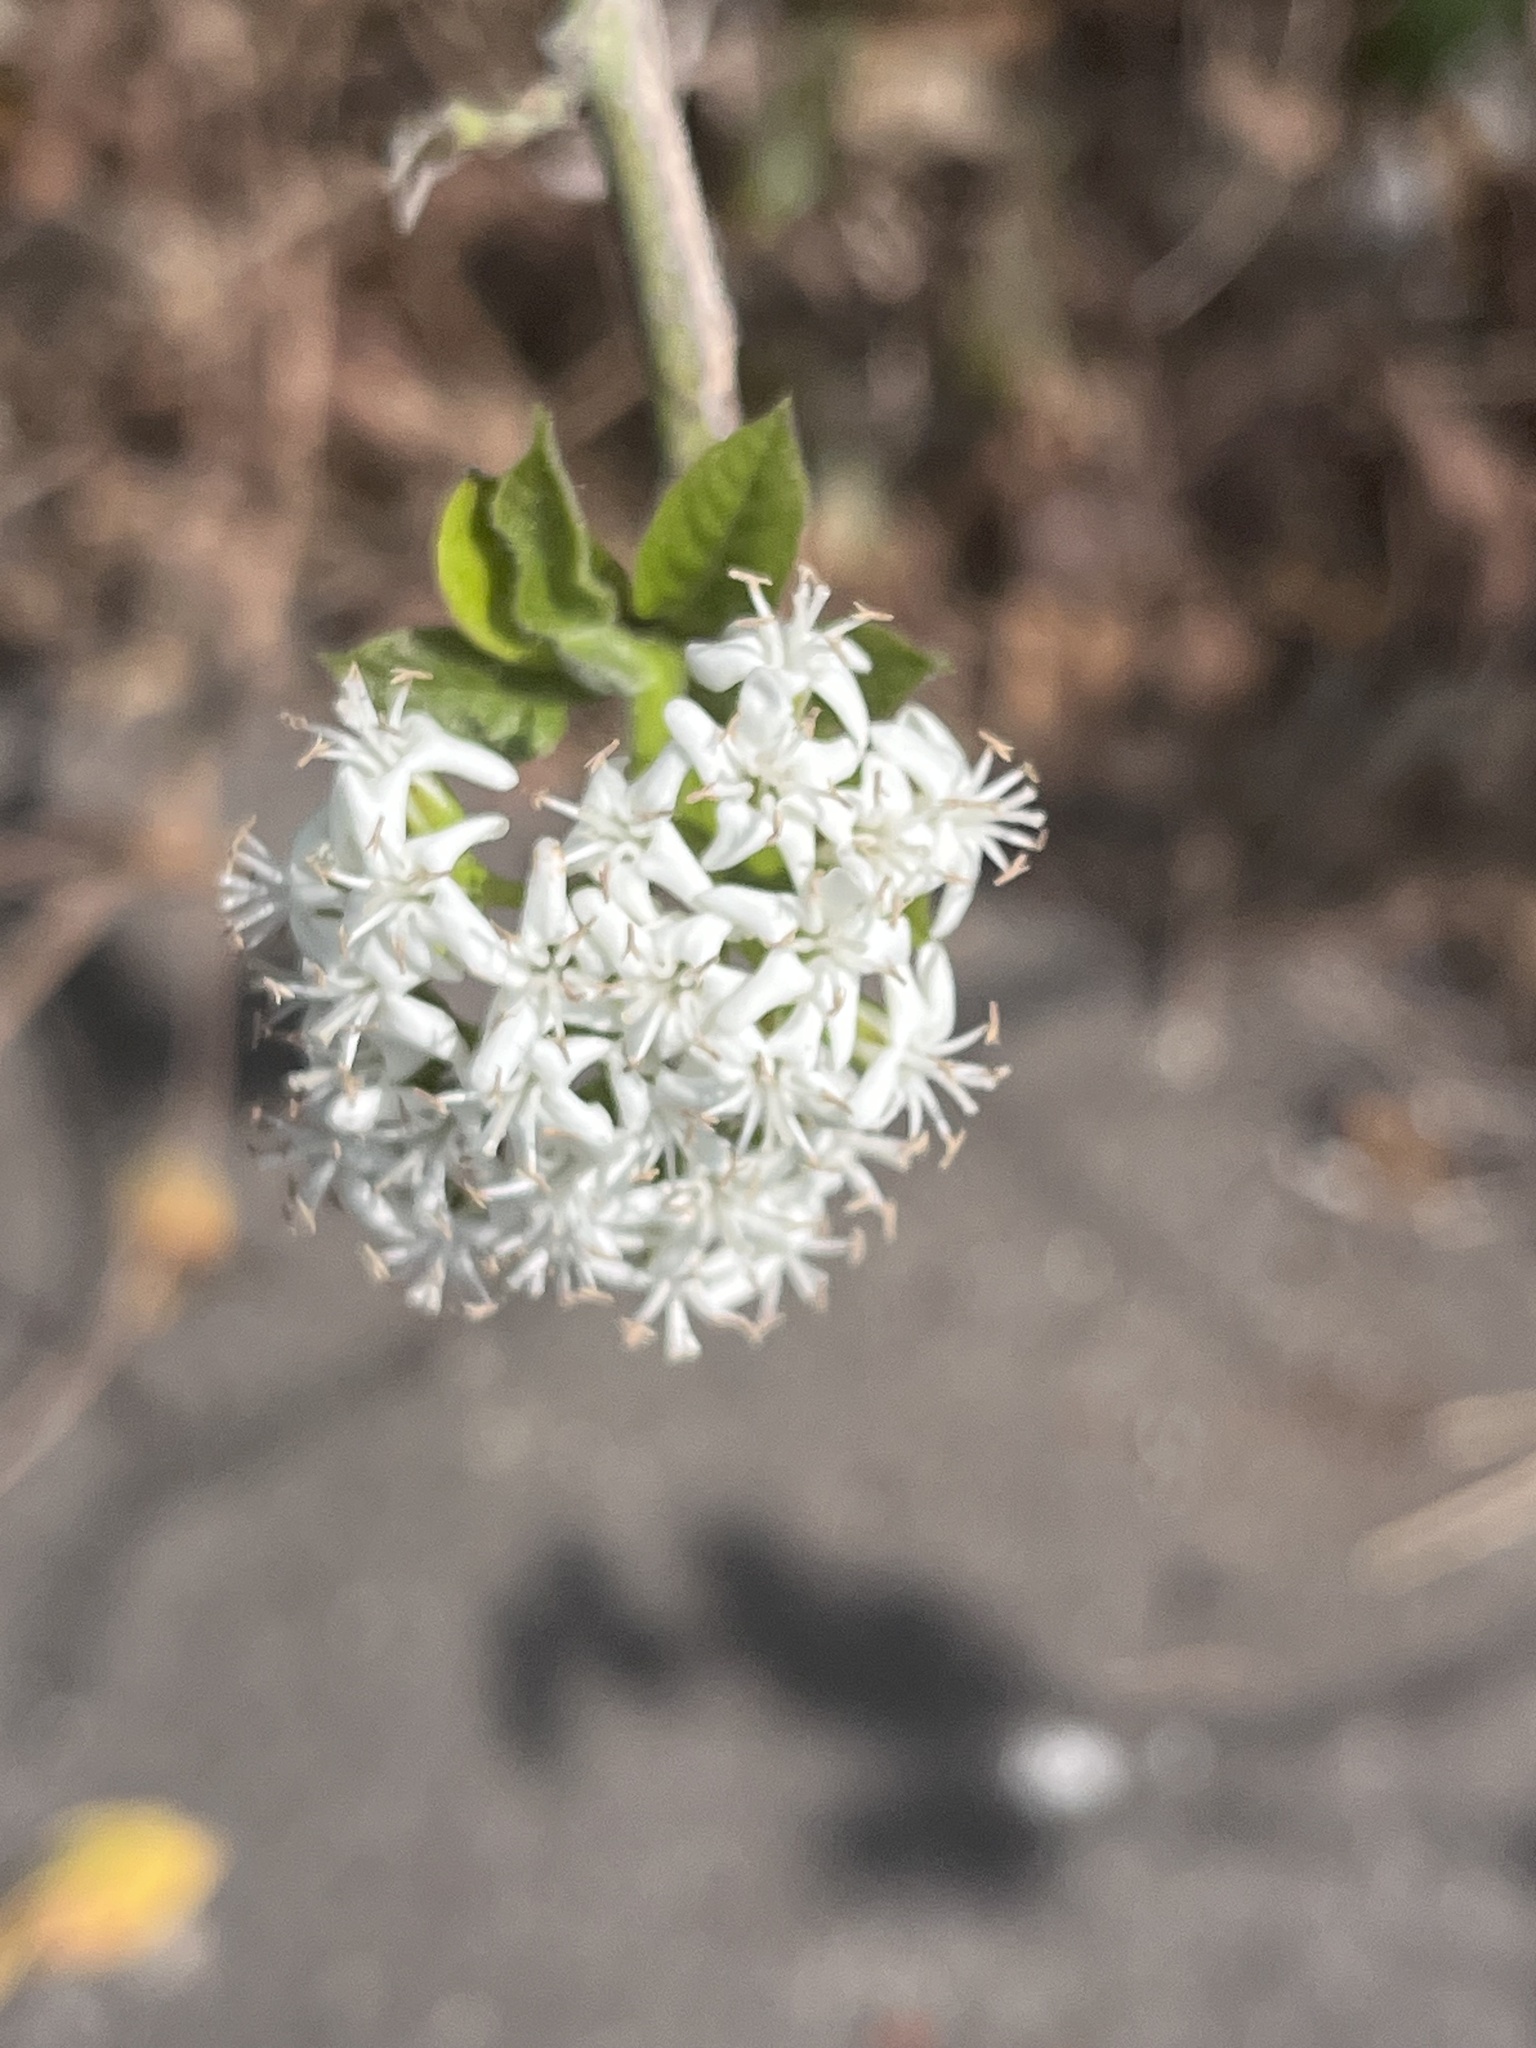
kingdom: Plantae
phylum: Tracheophyta
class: Magnoliopsida
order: Boraginales
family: Ehretiaceae
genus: Ehretia
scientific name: Ehretia resinosa
